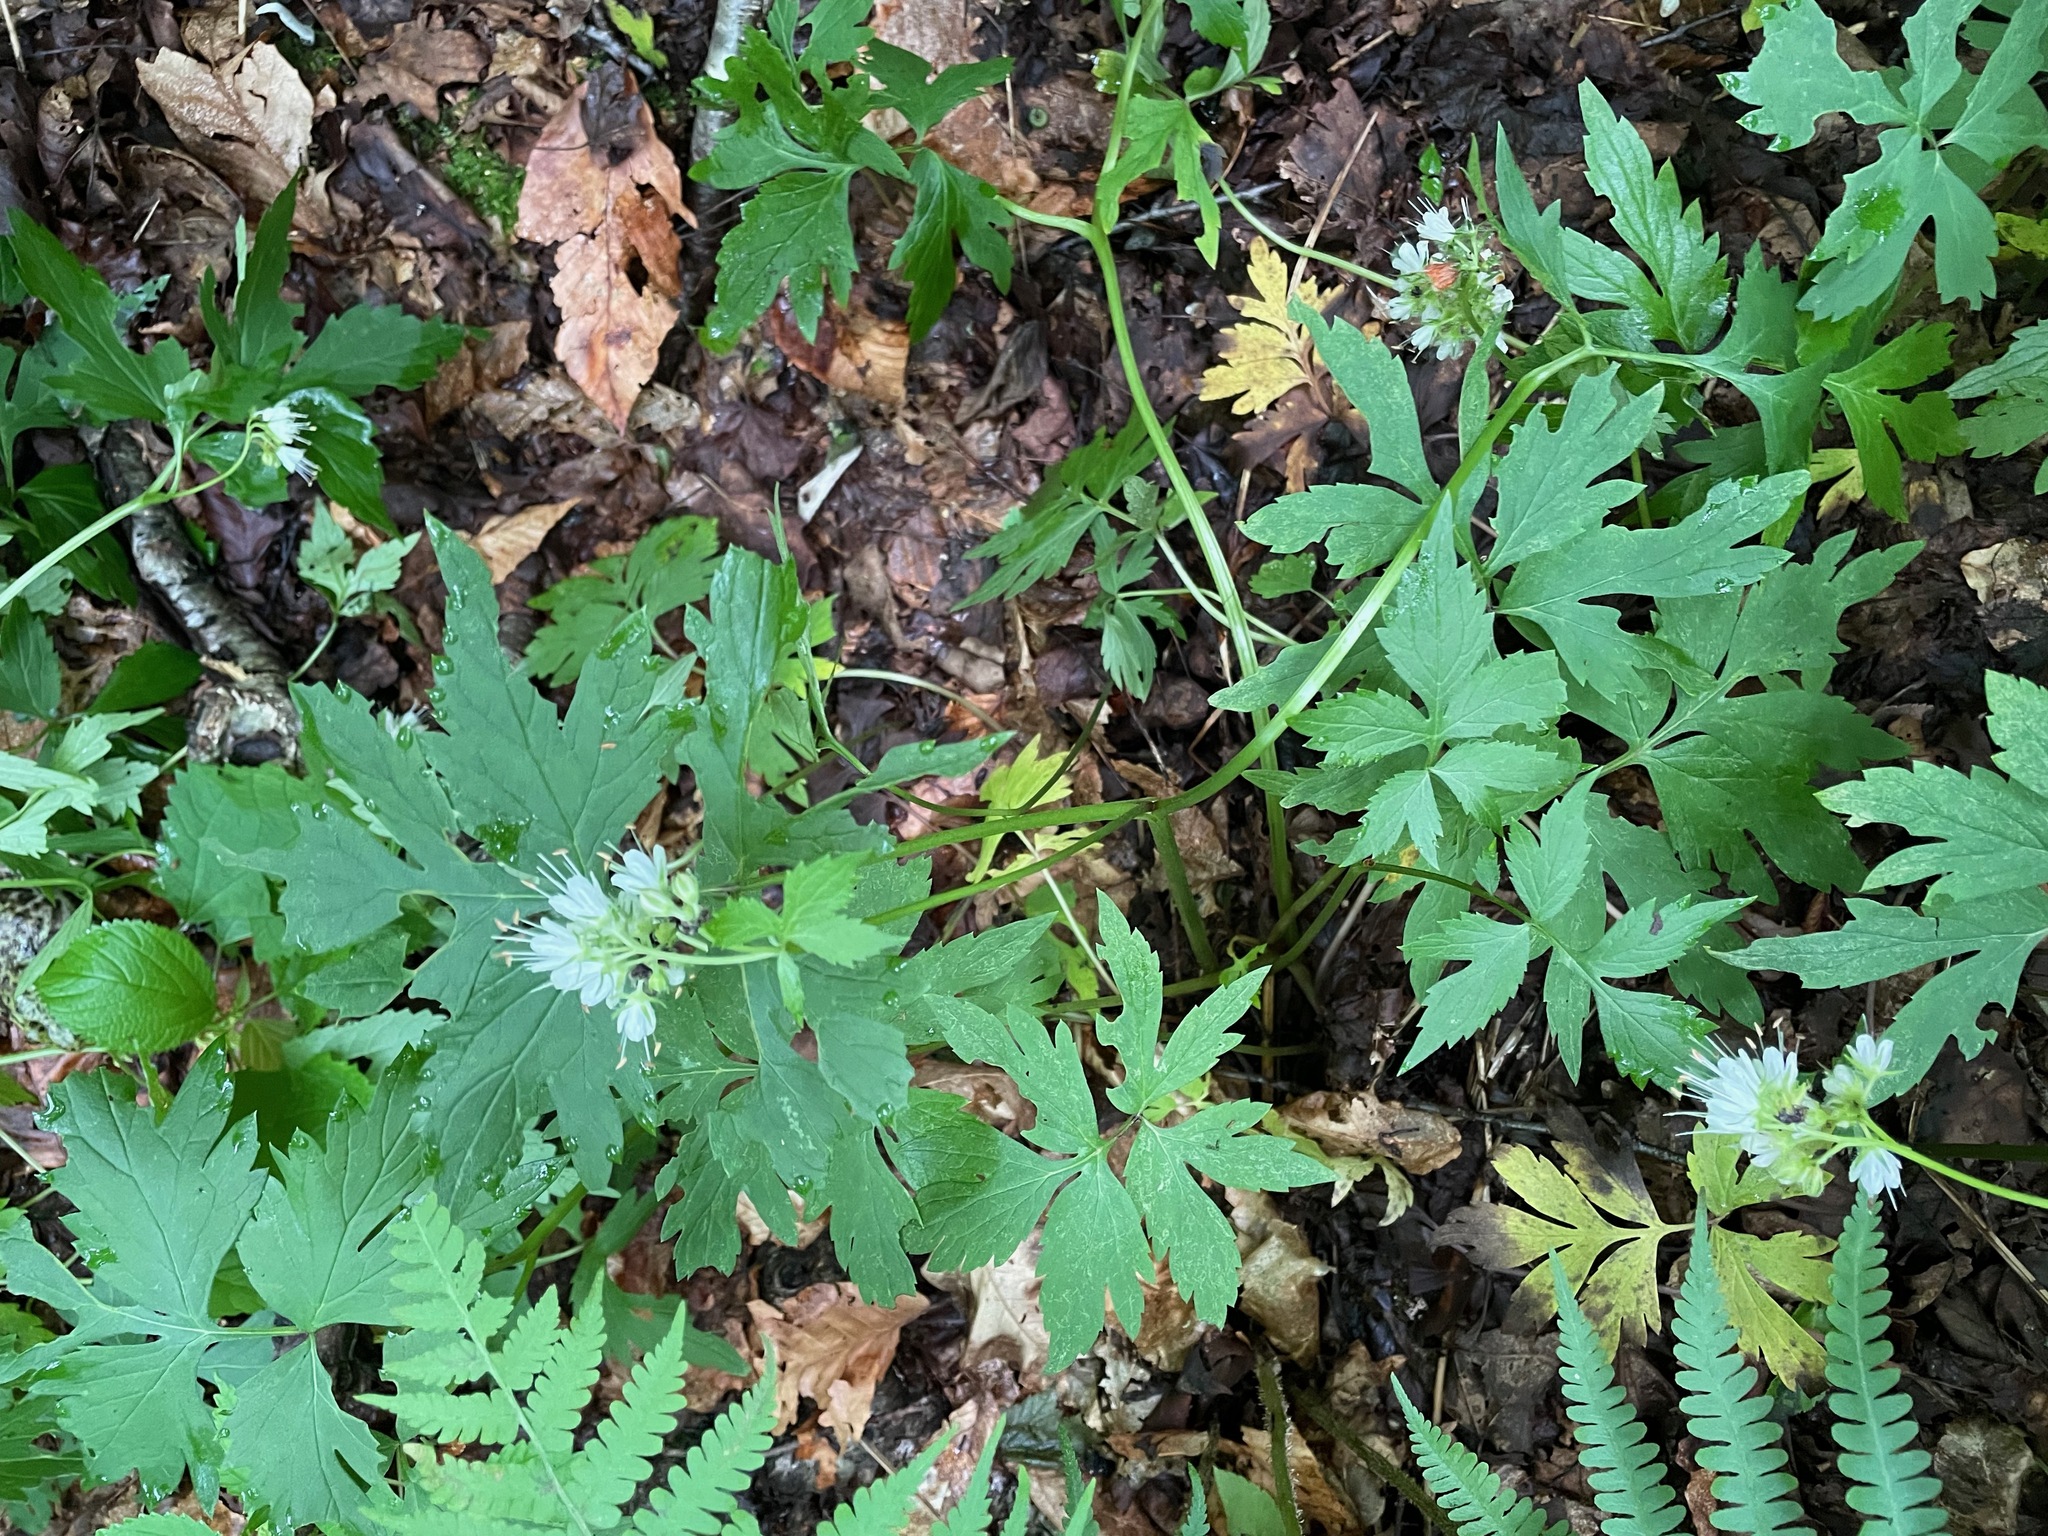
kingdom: Plantae
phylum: Tracheophyta
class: Magnoliopsida
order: Boraginales
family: Hydrophyllaceae
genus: Hydrophyllum
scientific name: Hydrophyllum virginianum
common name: Virginia waterleaf
